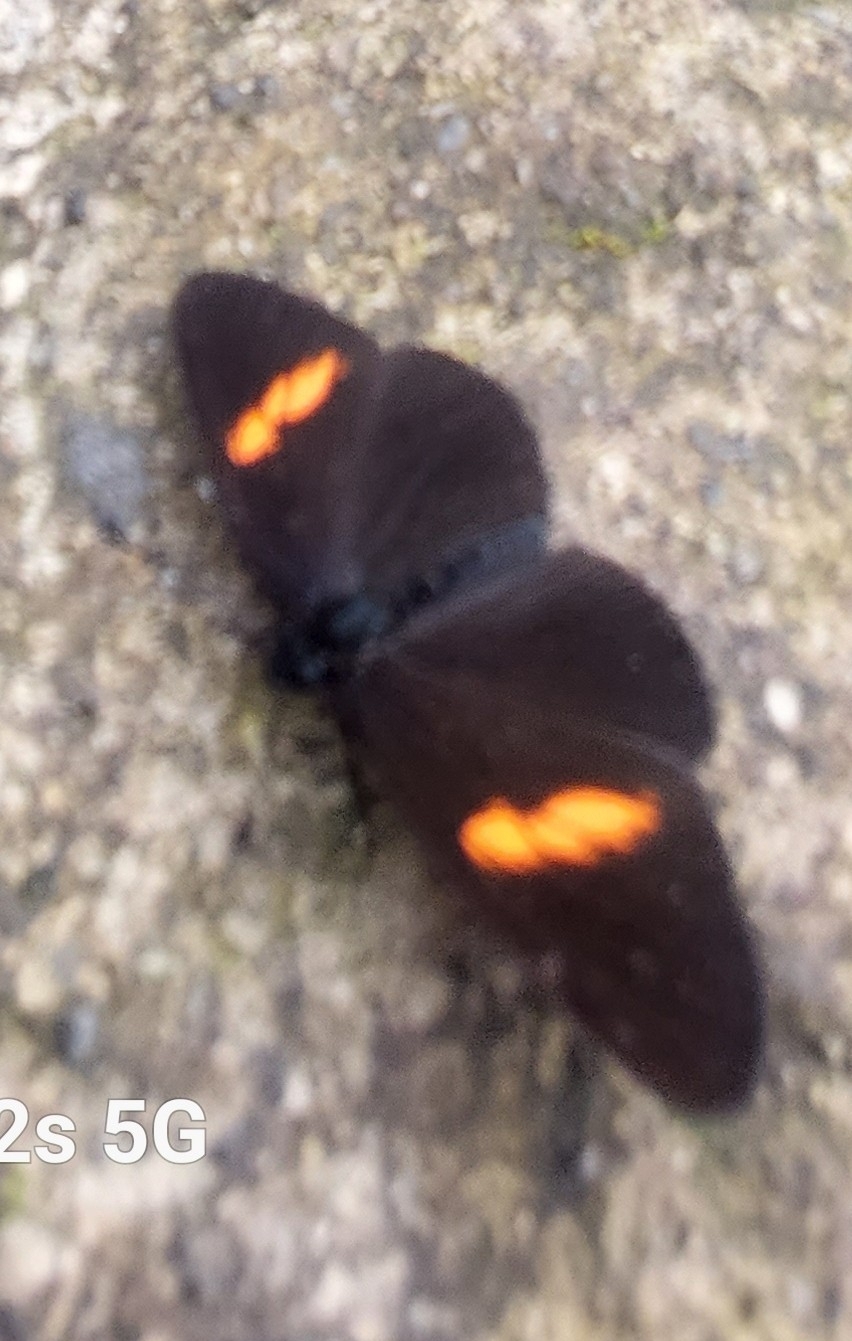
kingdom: Animalia
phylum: Arthropoda
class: Insecta
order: Lepidoptera
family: Nymphalidae
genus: Castilia
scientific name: Castilia castilla
